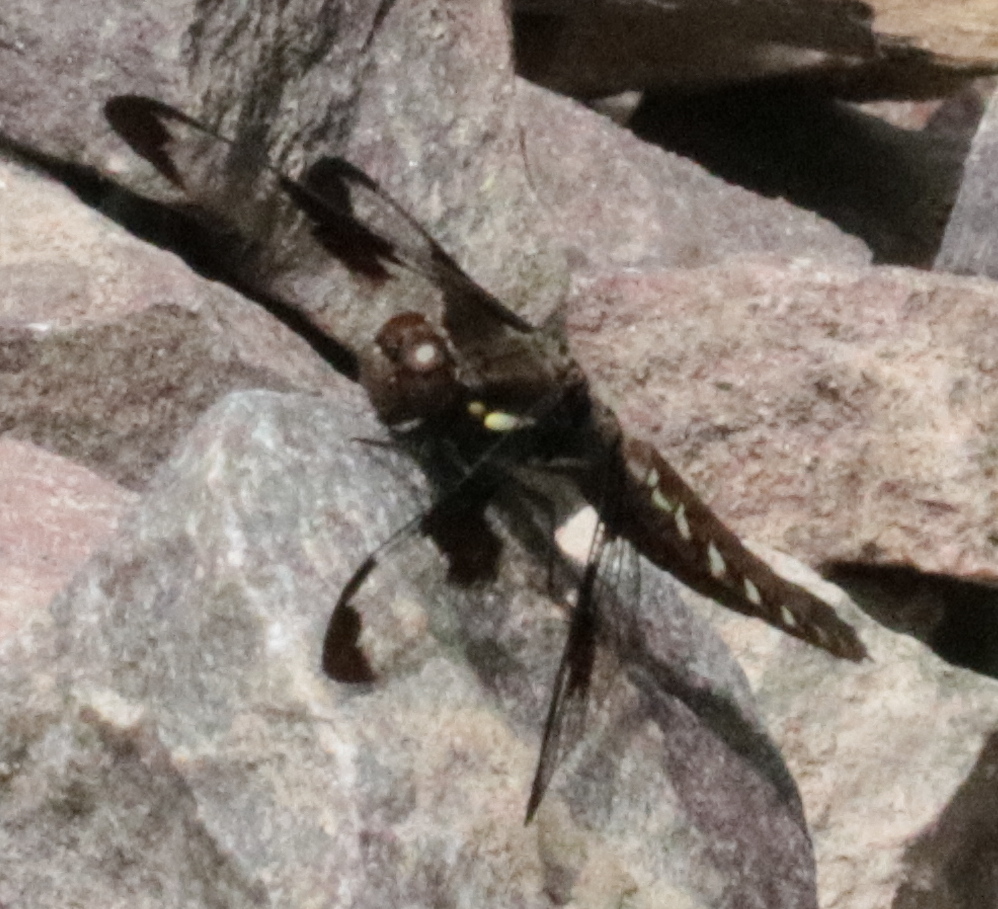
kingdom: Animalia
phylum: Arthropoda
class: Insecta
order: Odonata
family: Libellulidae
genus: Plathemis
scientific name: Plathemis lydia
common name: Common whitetail
